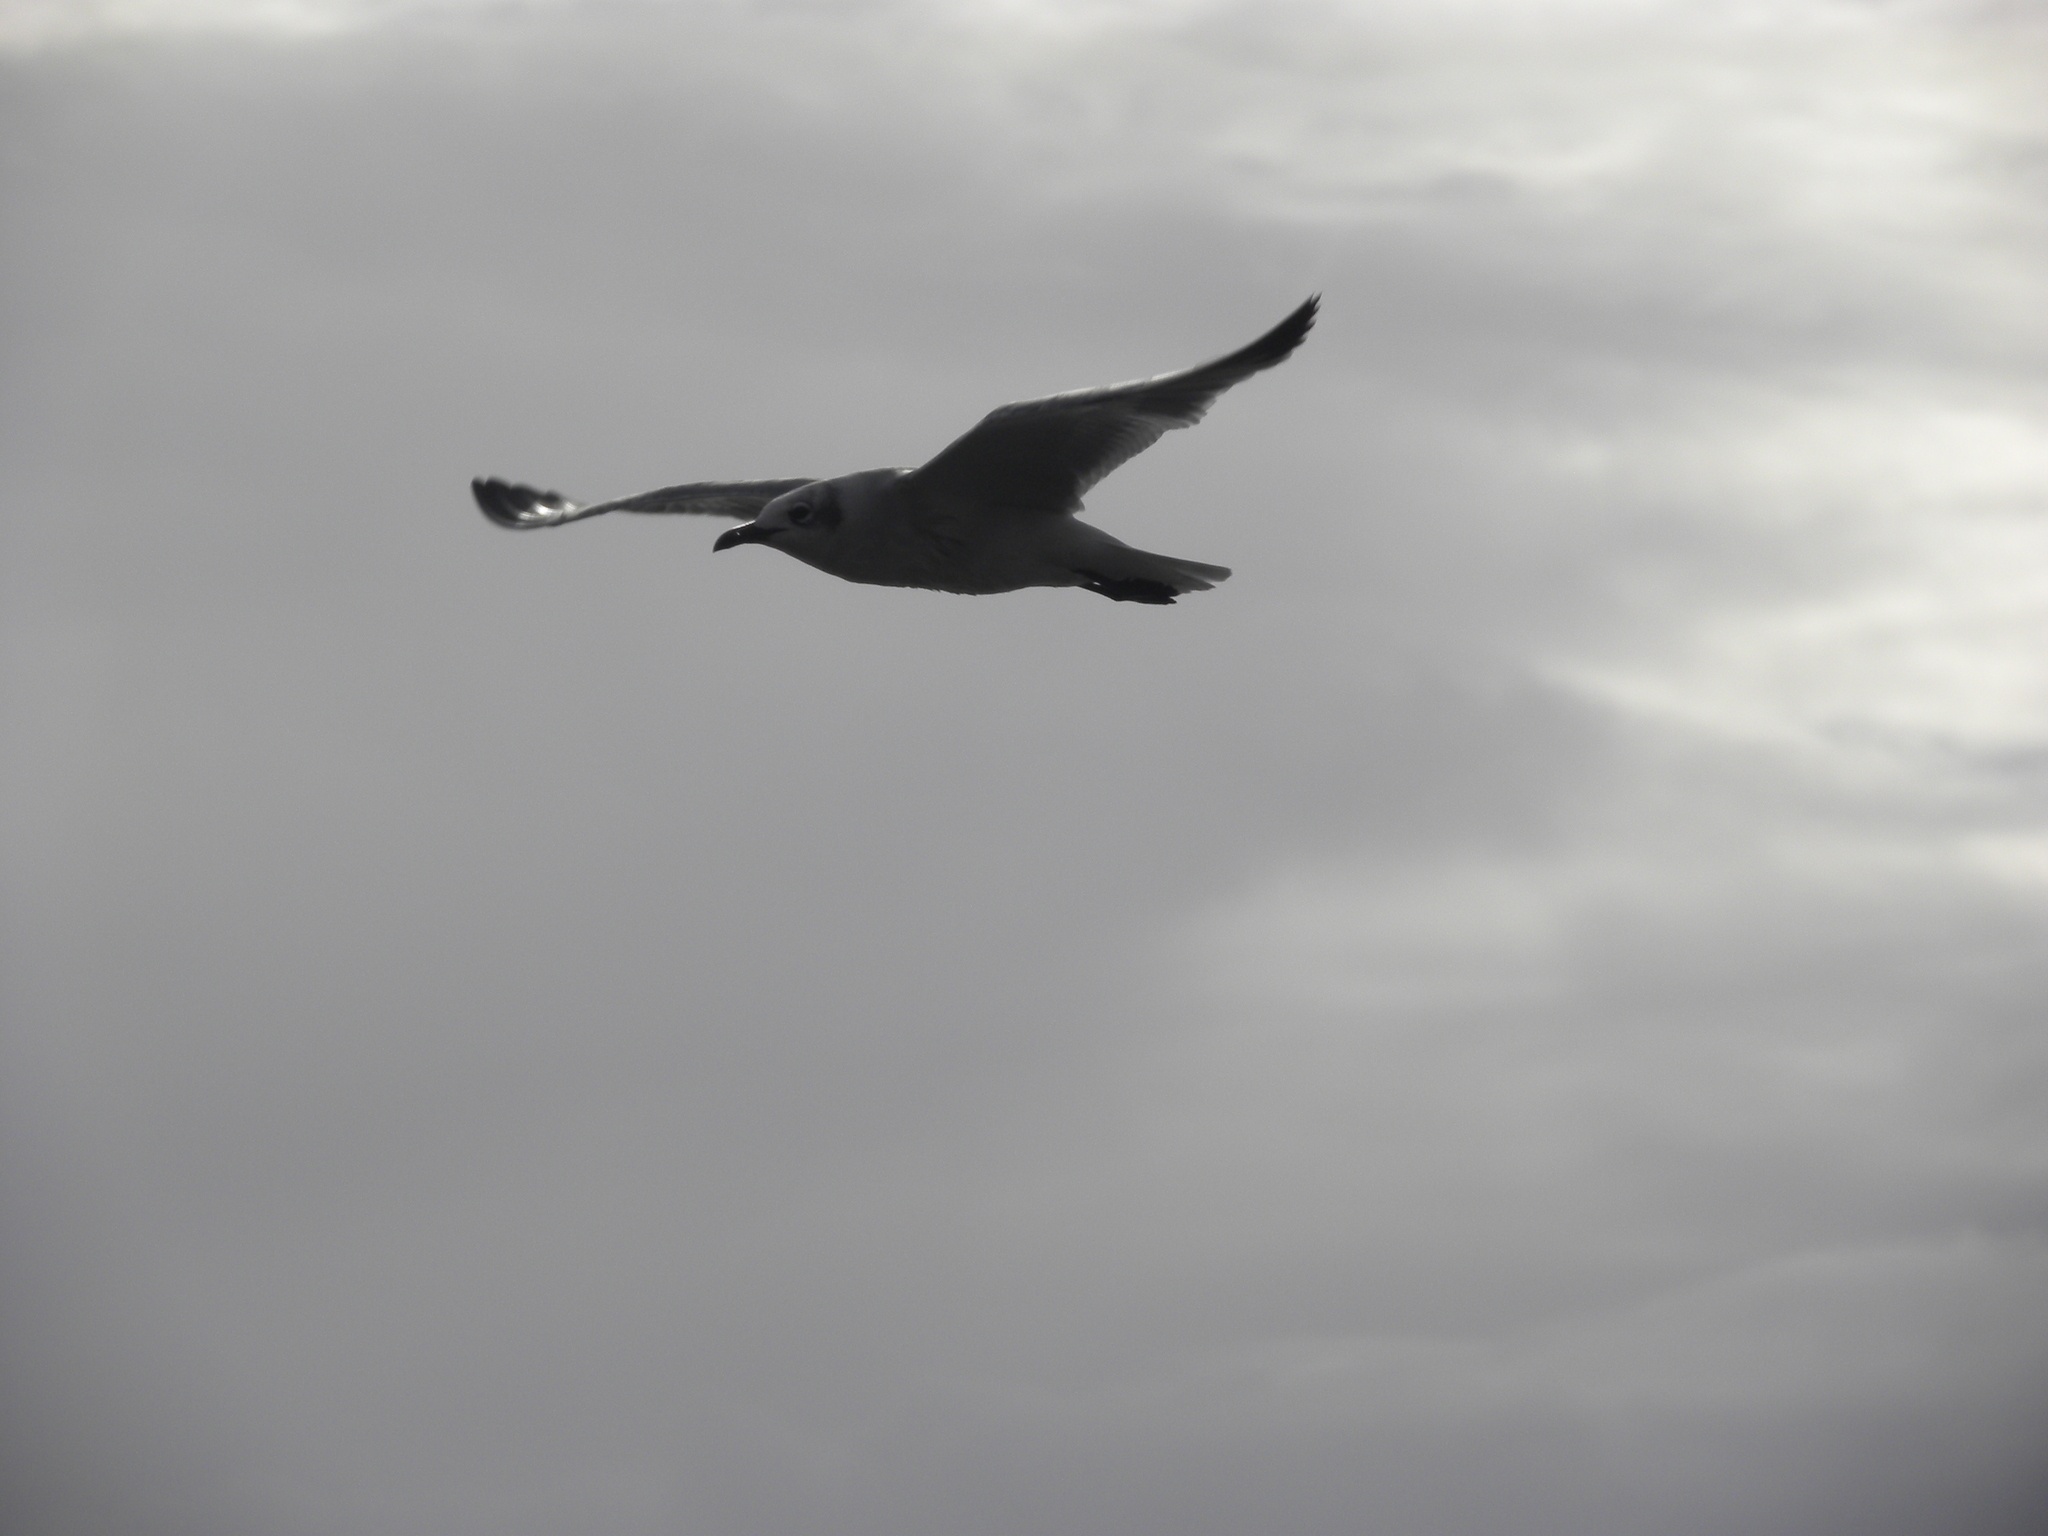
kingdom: Animalia
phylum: Chordata
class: Aves
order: Charadriiformes
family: Laridae
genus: Leucophaeus
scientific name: Leucophaeus atricilla
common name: Laughing gull
